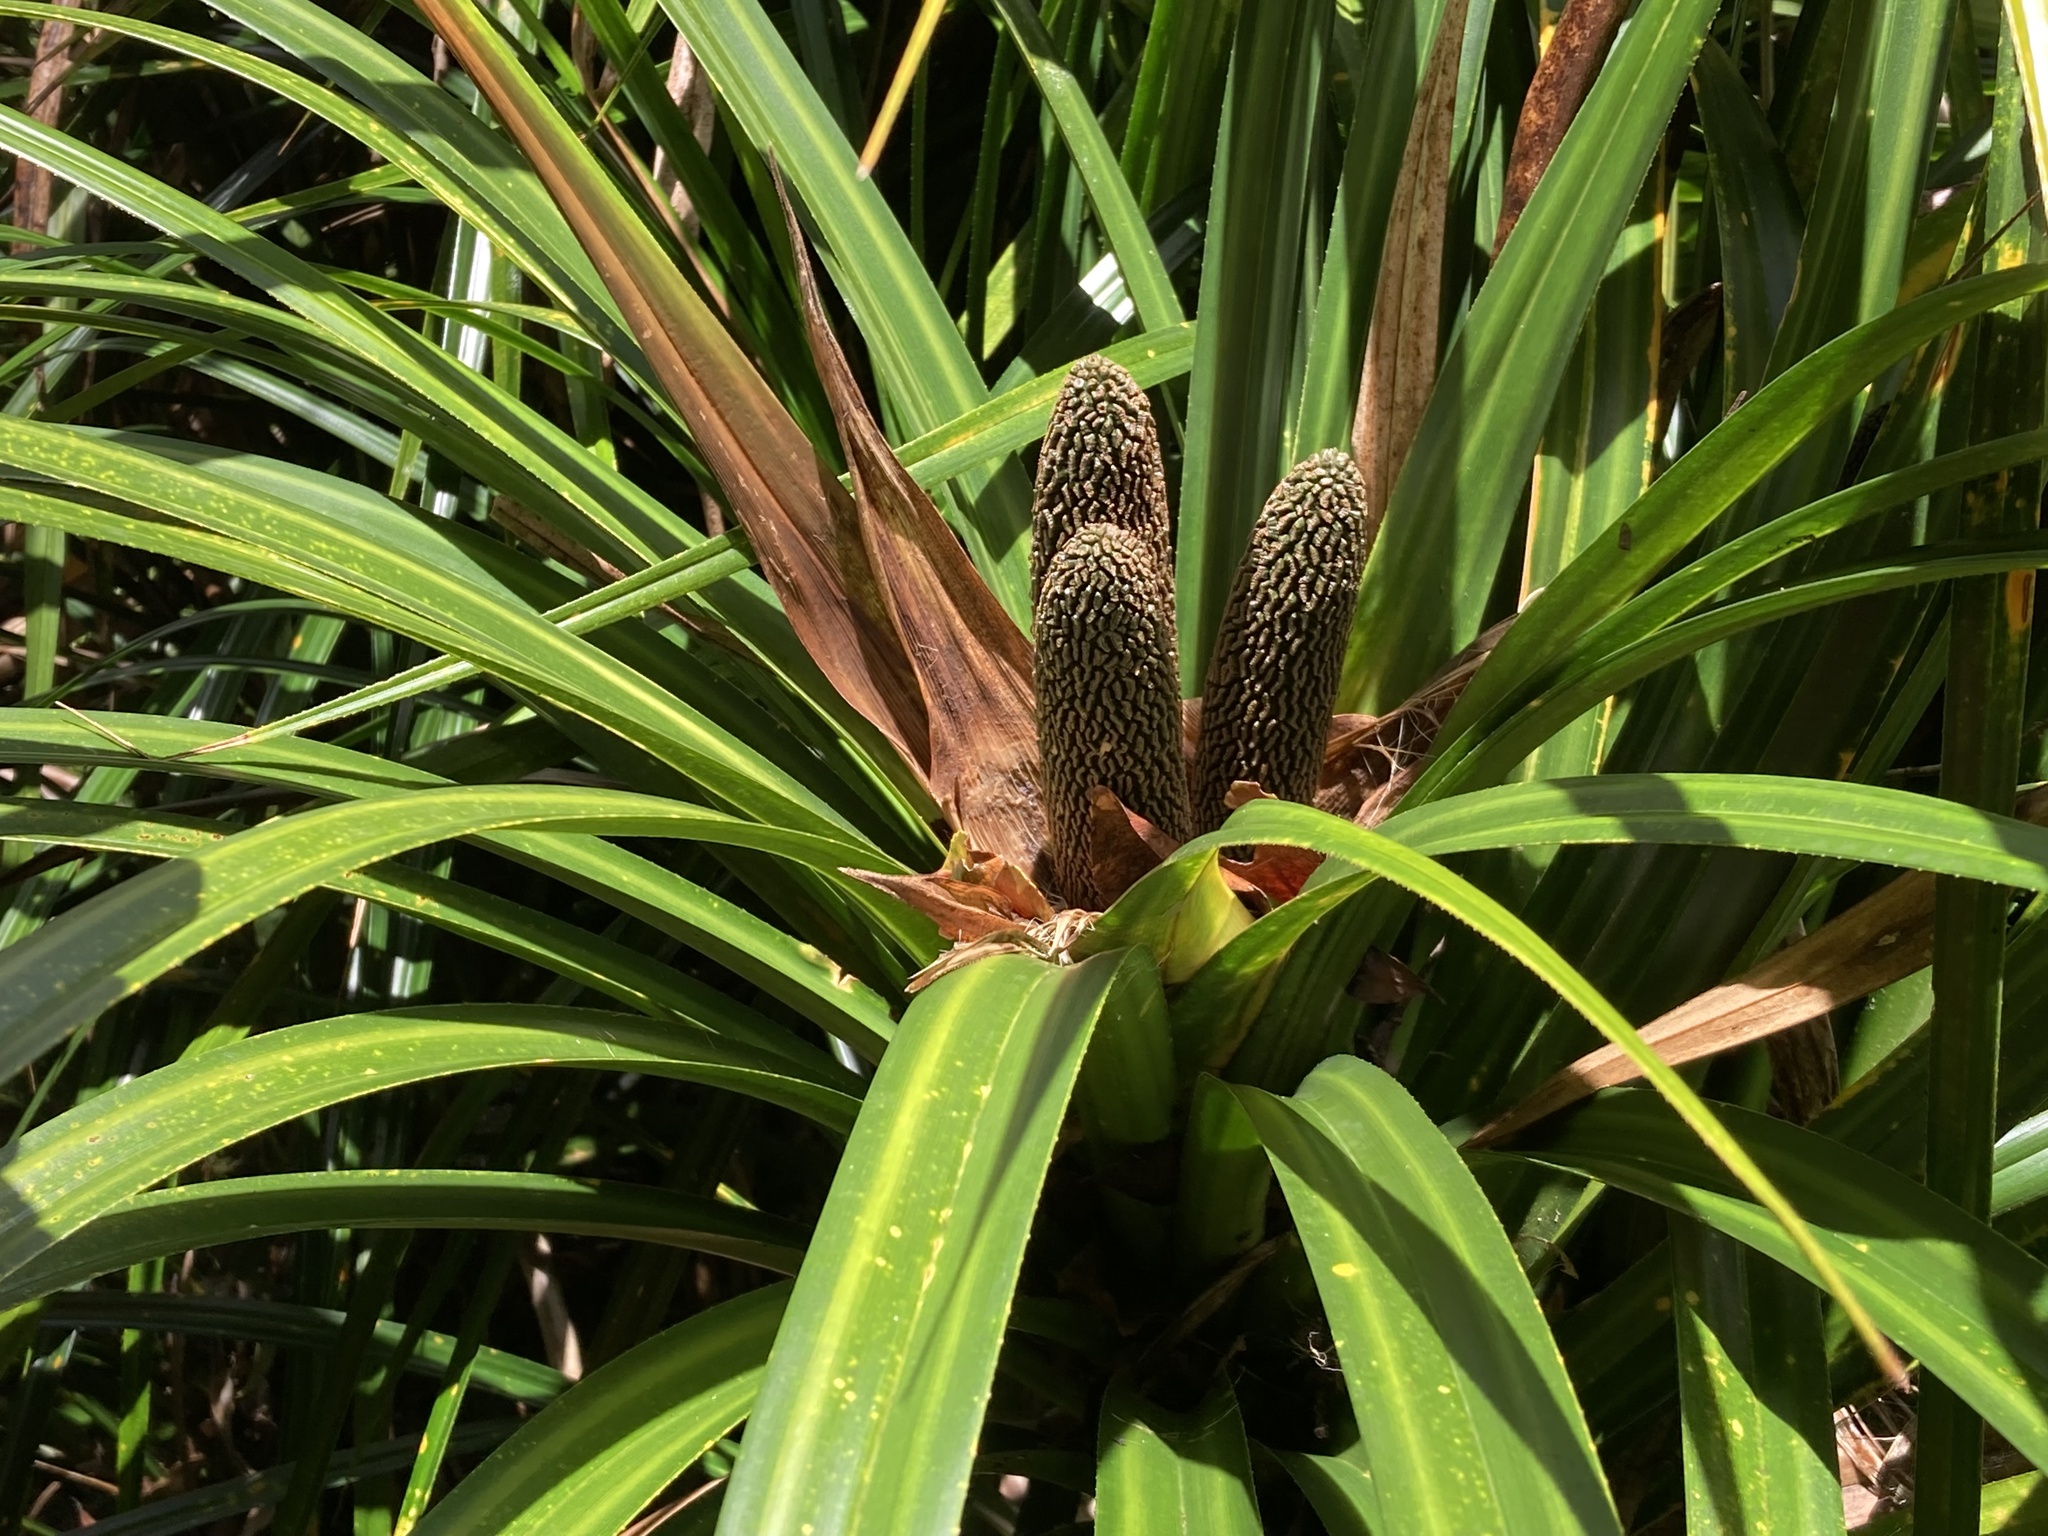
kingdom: Plantae
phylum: Tracheophyta
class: Liliopsida
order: Pandanales
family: Pandanaceae
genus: Freycinetia
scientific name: Freycinetia banksii
